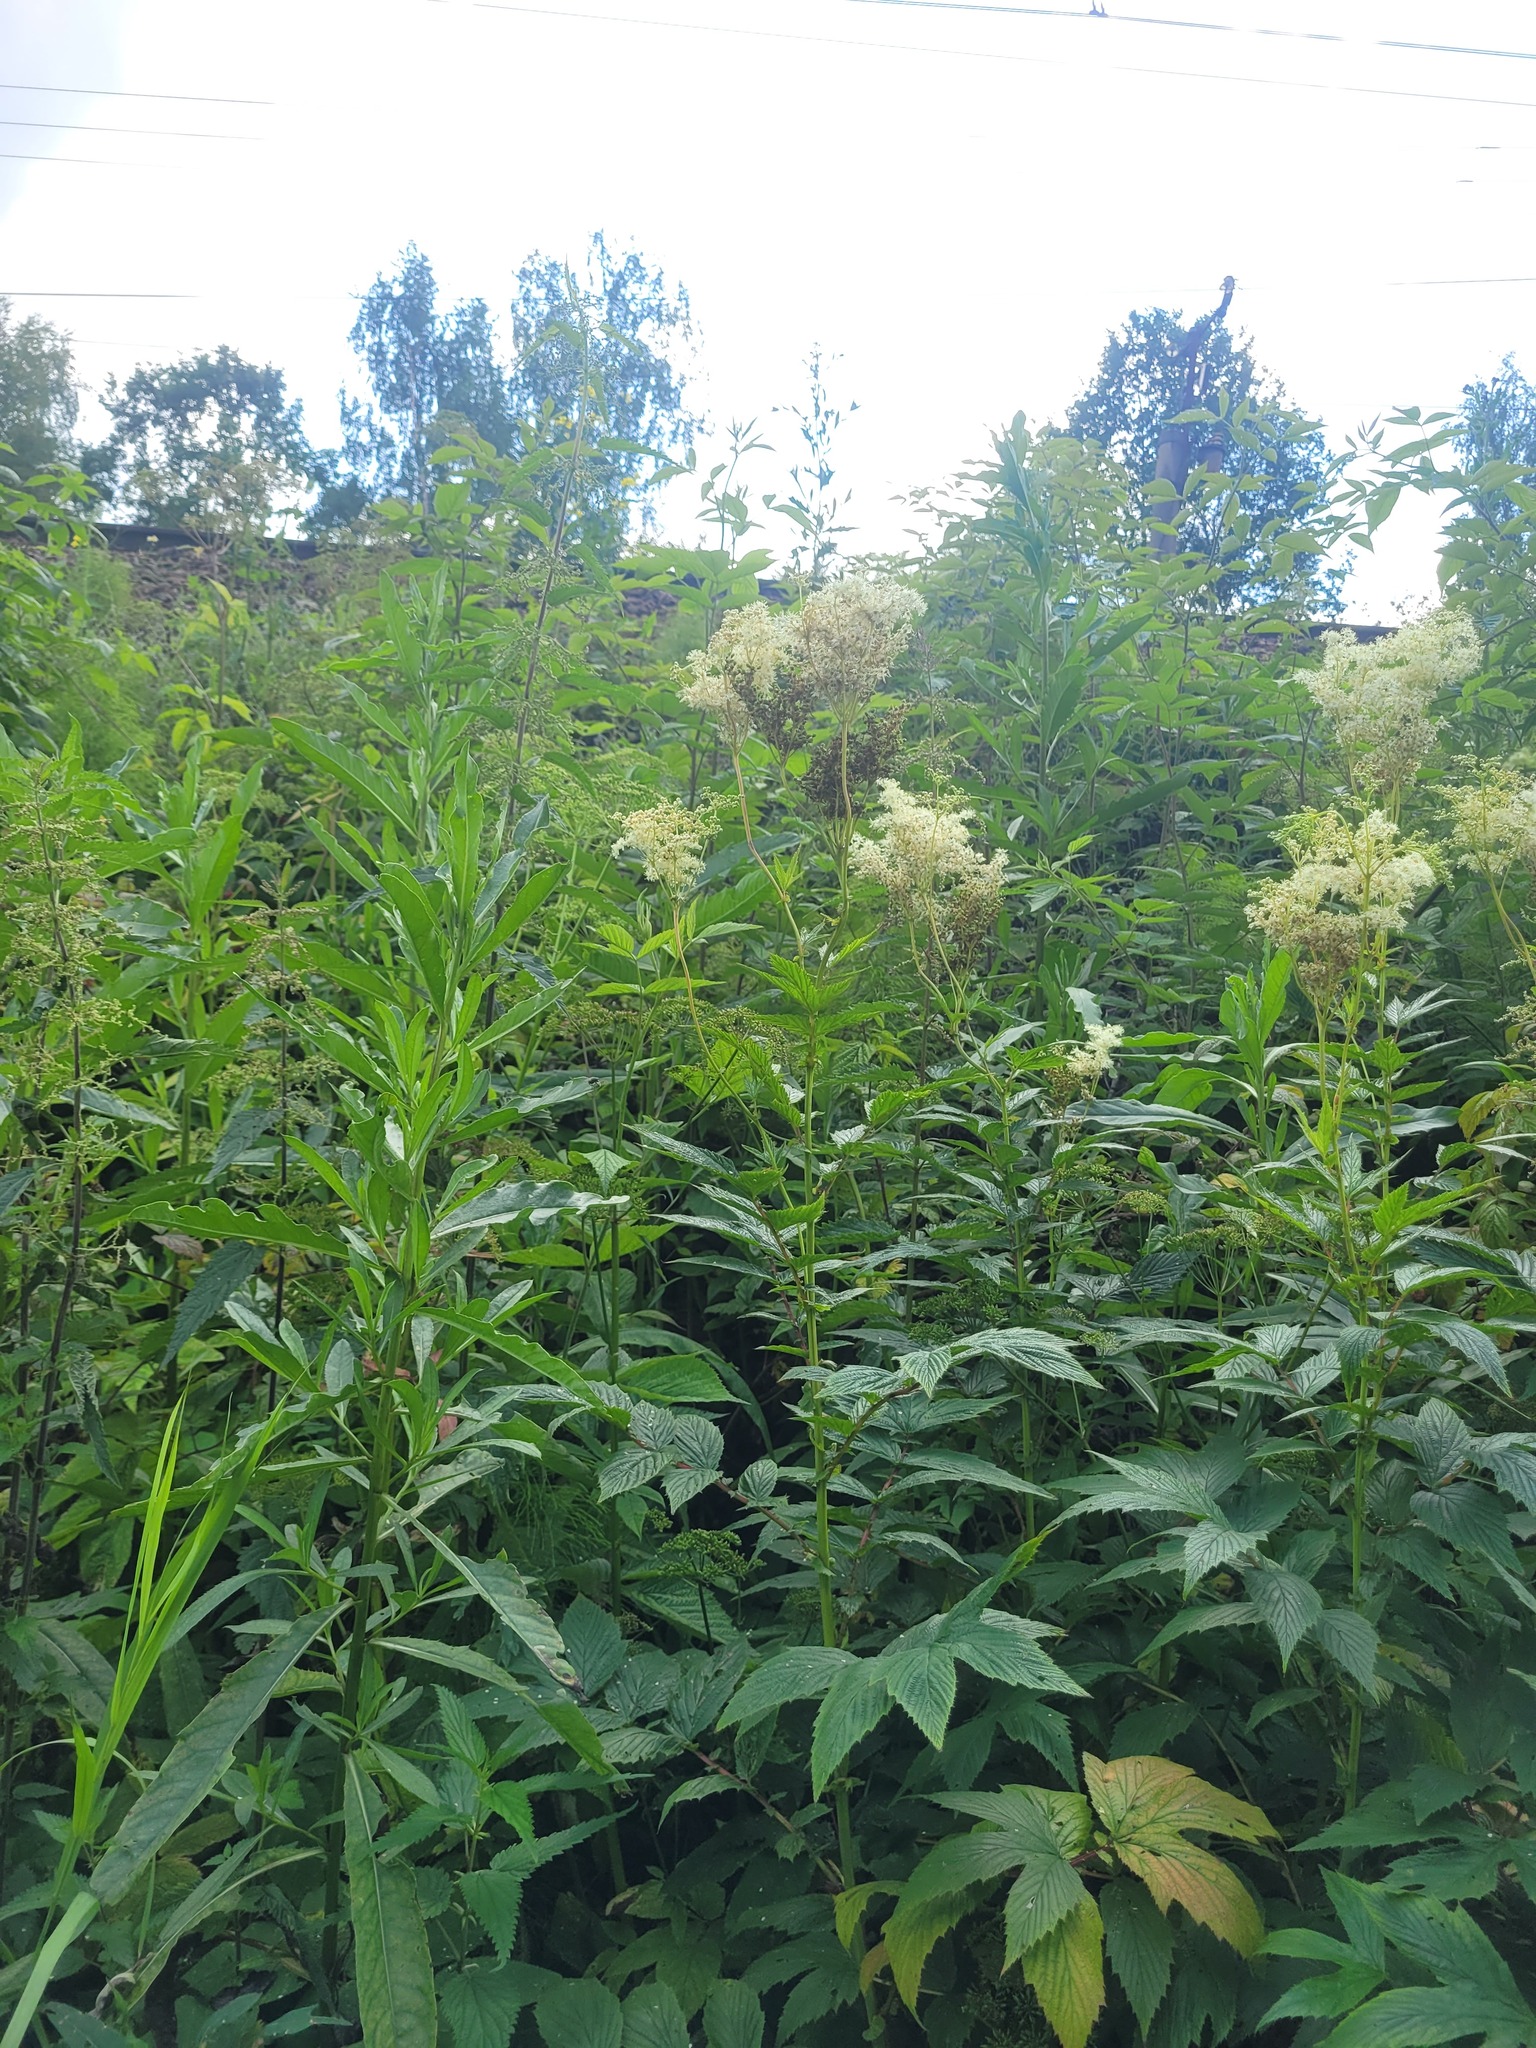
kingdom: Plantae
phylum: Tracheophyta
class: Magnoliopsida
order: Rosales
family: Rosaceae
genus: Filipendula
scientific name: Filipendula ulmaria
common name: Meadowsweet
